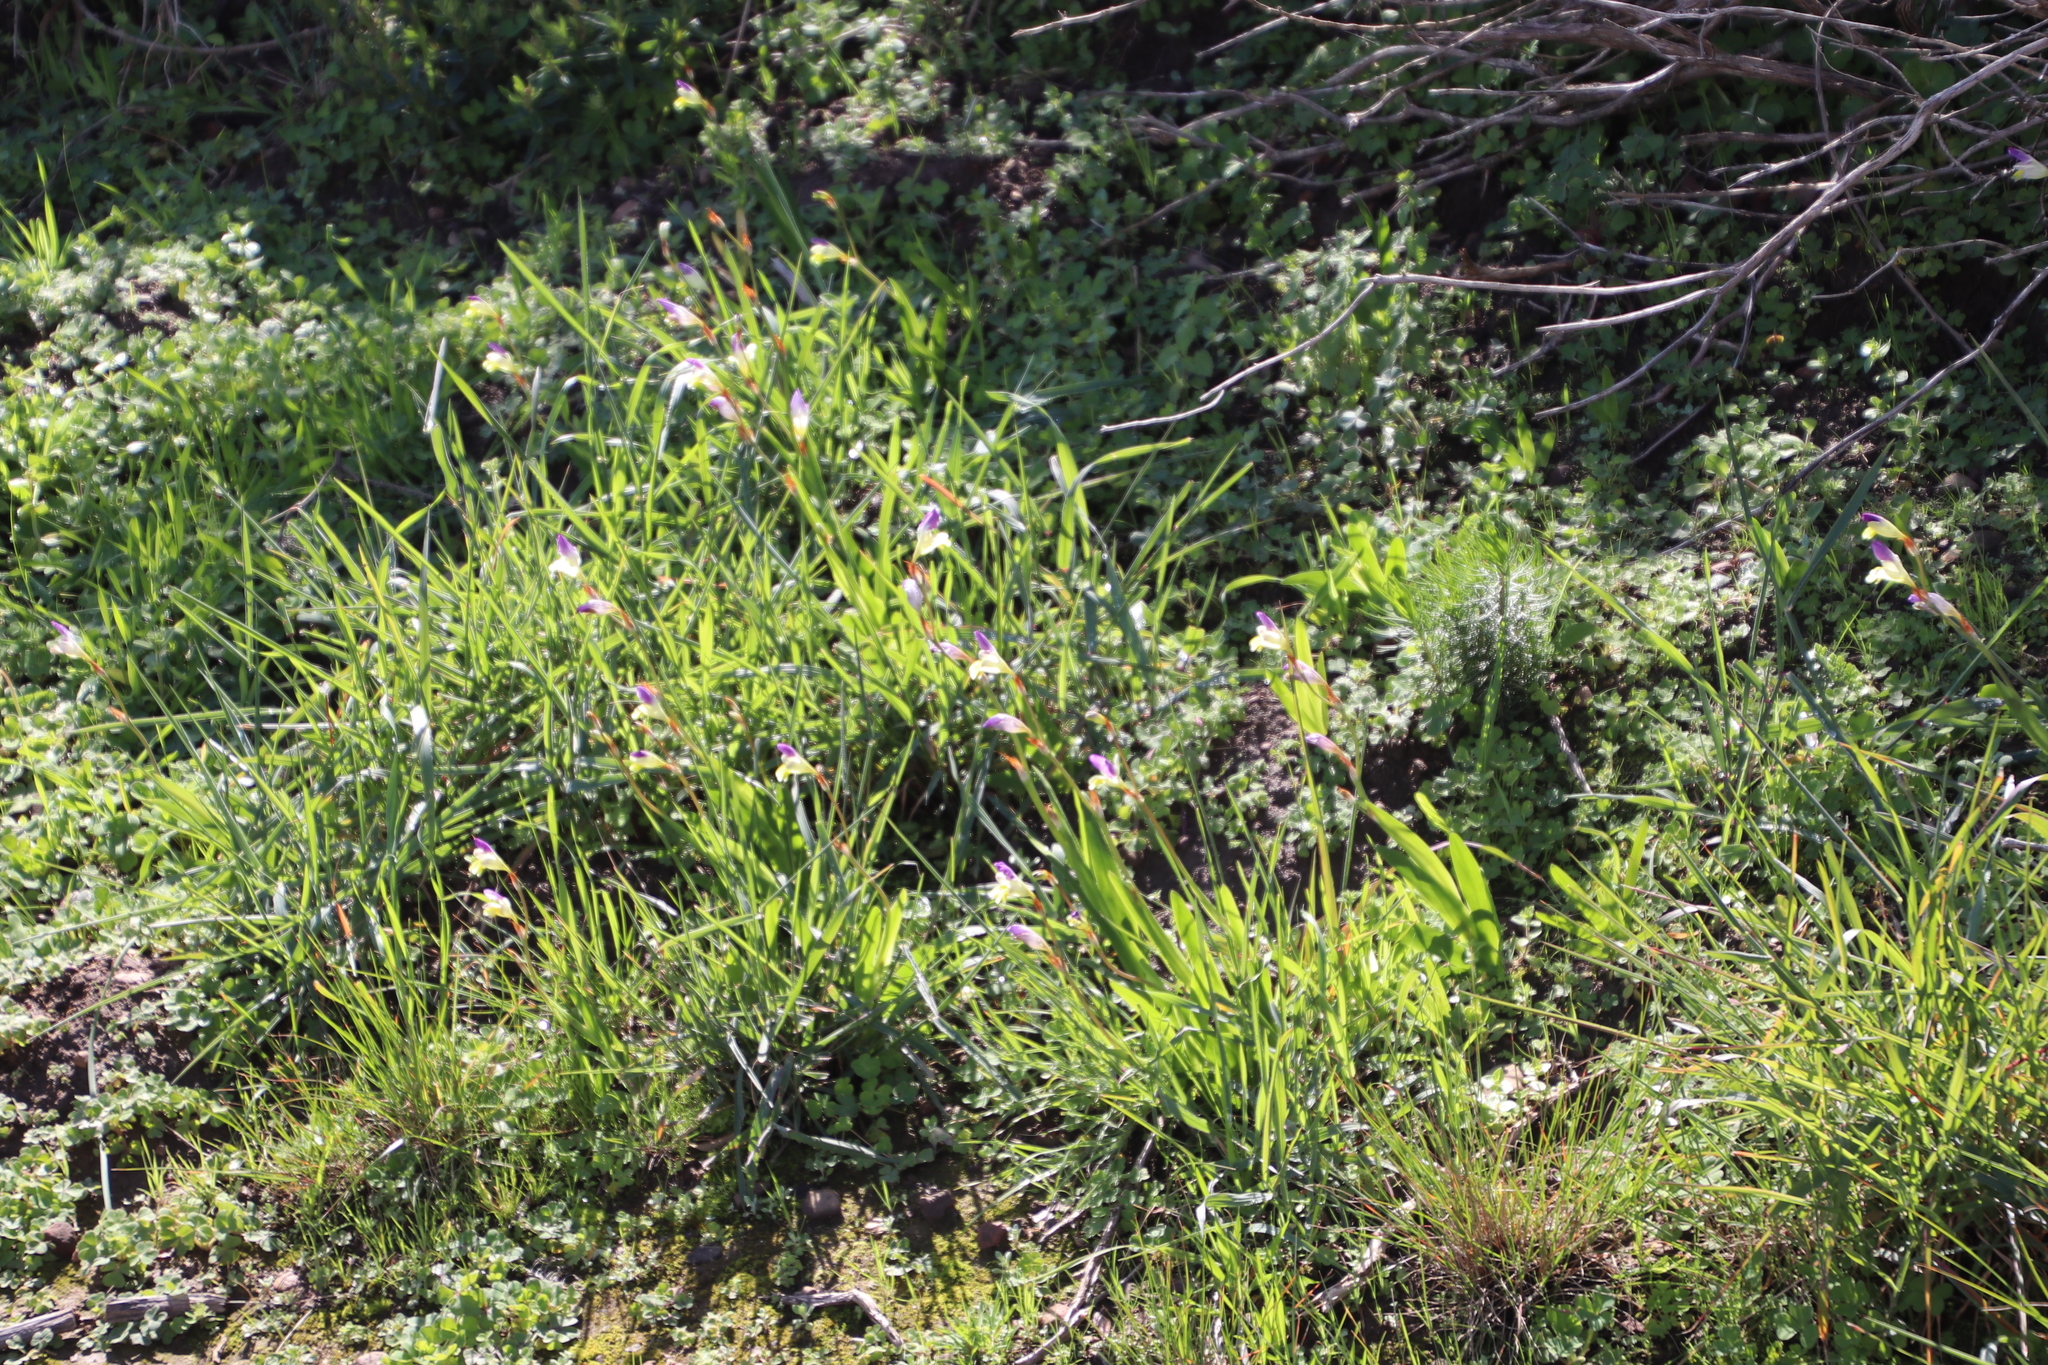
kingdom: Plantae
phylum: Tracheophyta
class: Liliopsida
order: Asparagales
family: Iridaceae
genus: Sparaxis
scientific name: Sparaxis villosa
